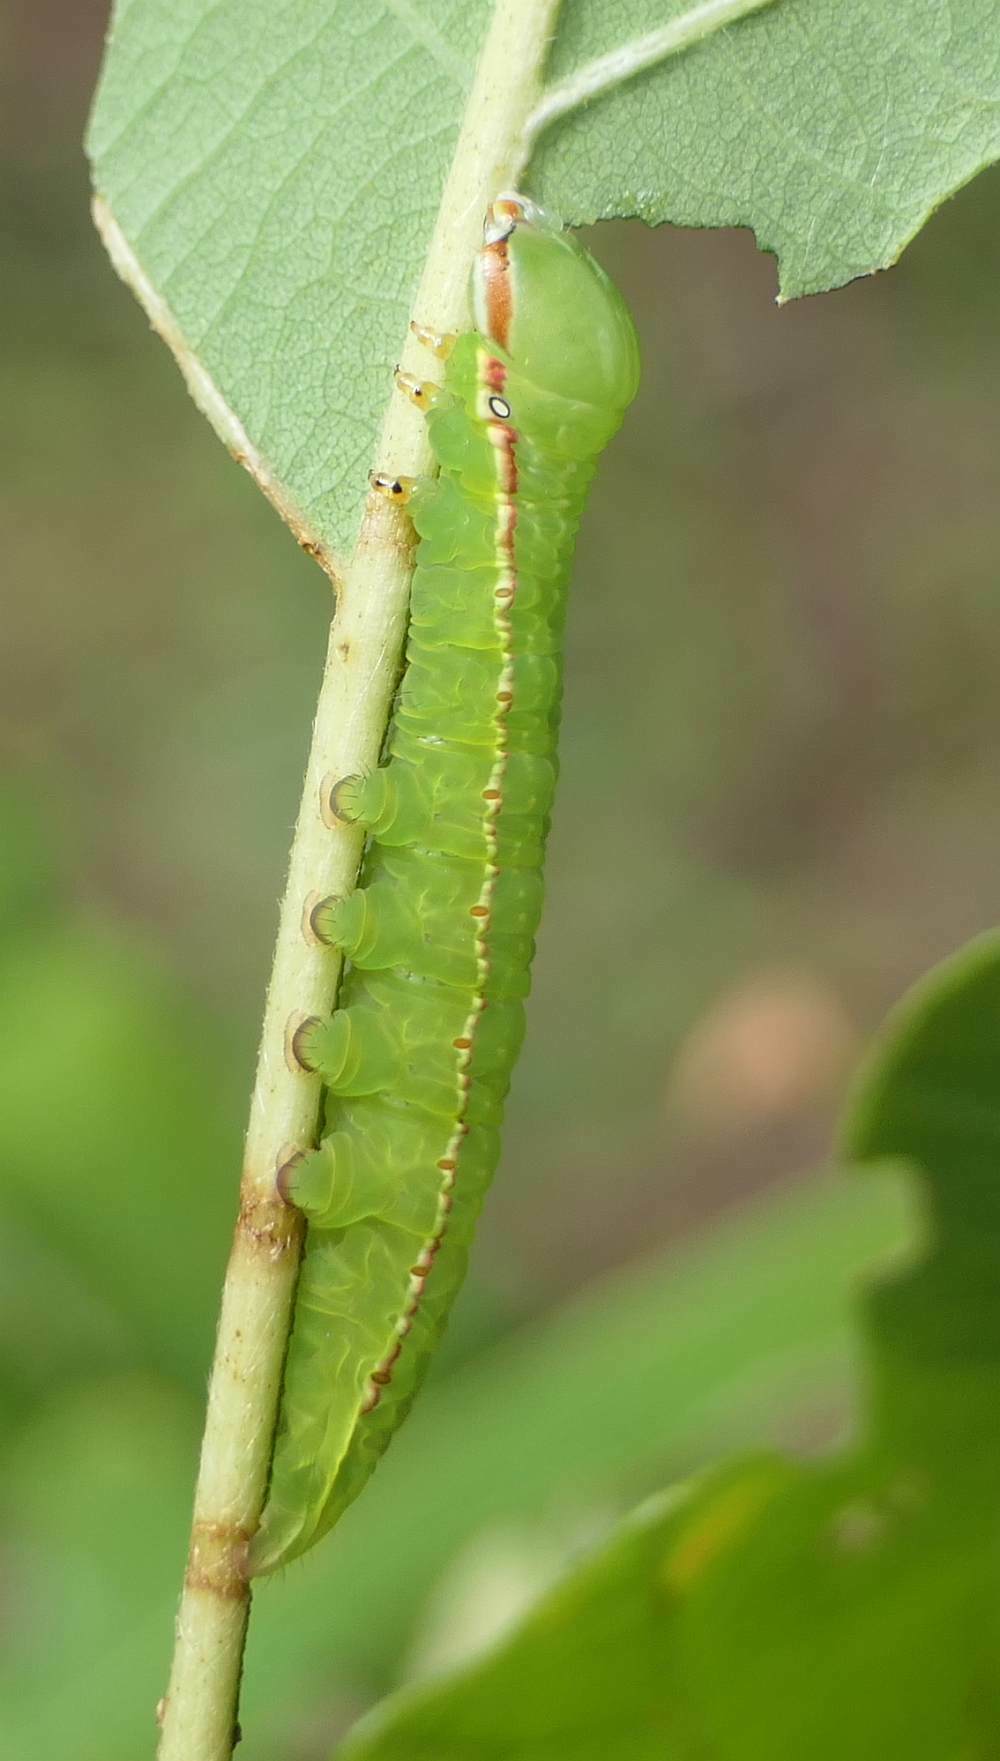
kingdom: Animalia
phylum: Arthropoda
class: Insecta
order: Lepidoptera
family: Notodontidae
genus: Peridea
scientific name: Peridea angulosa
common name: Angulose prominent
